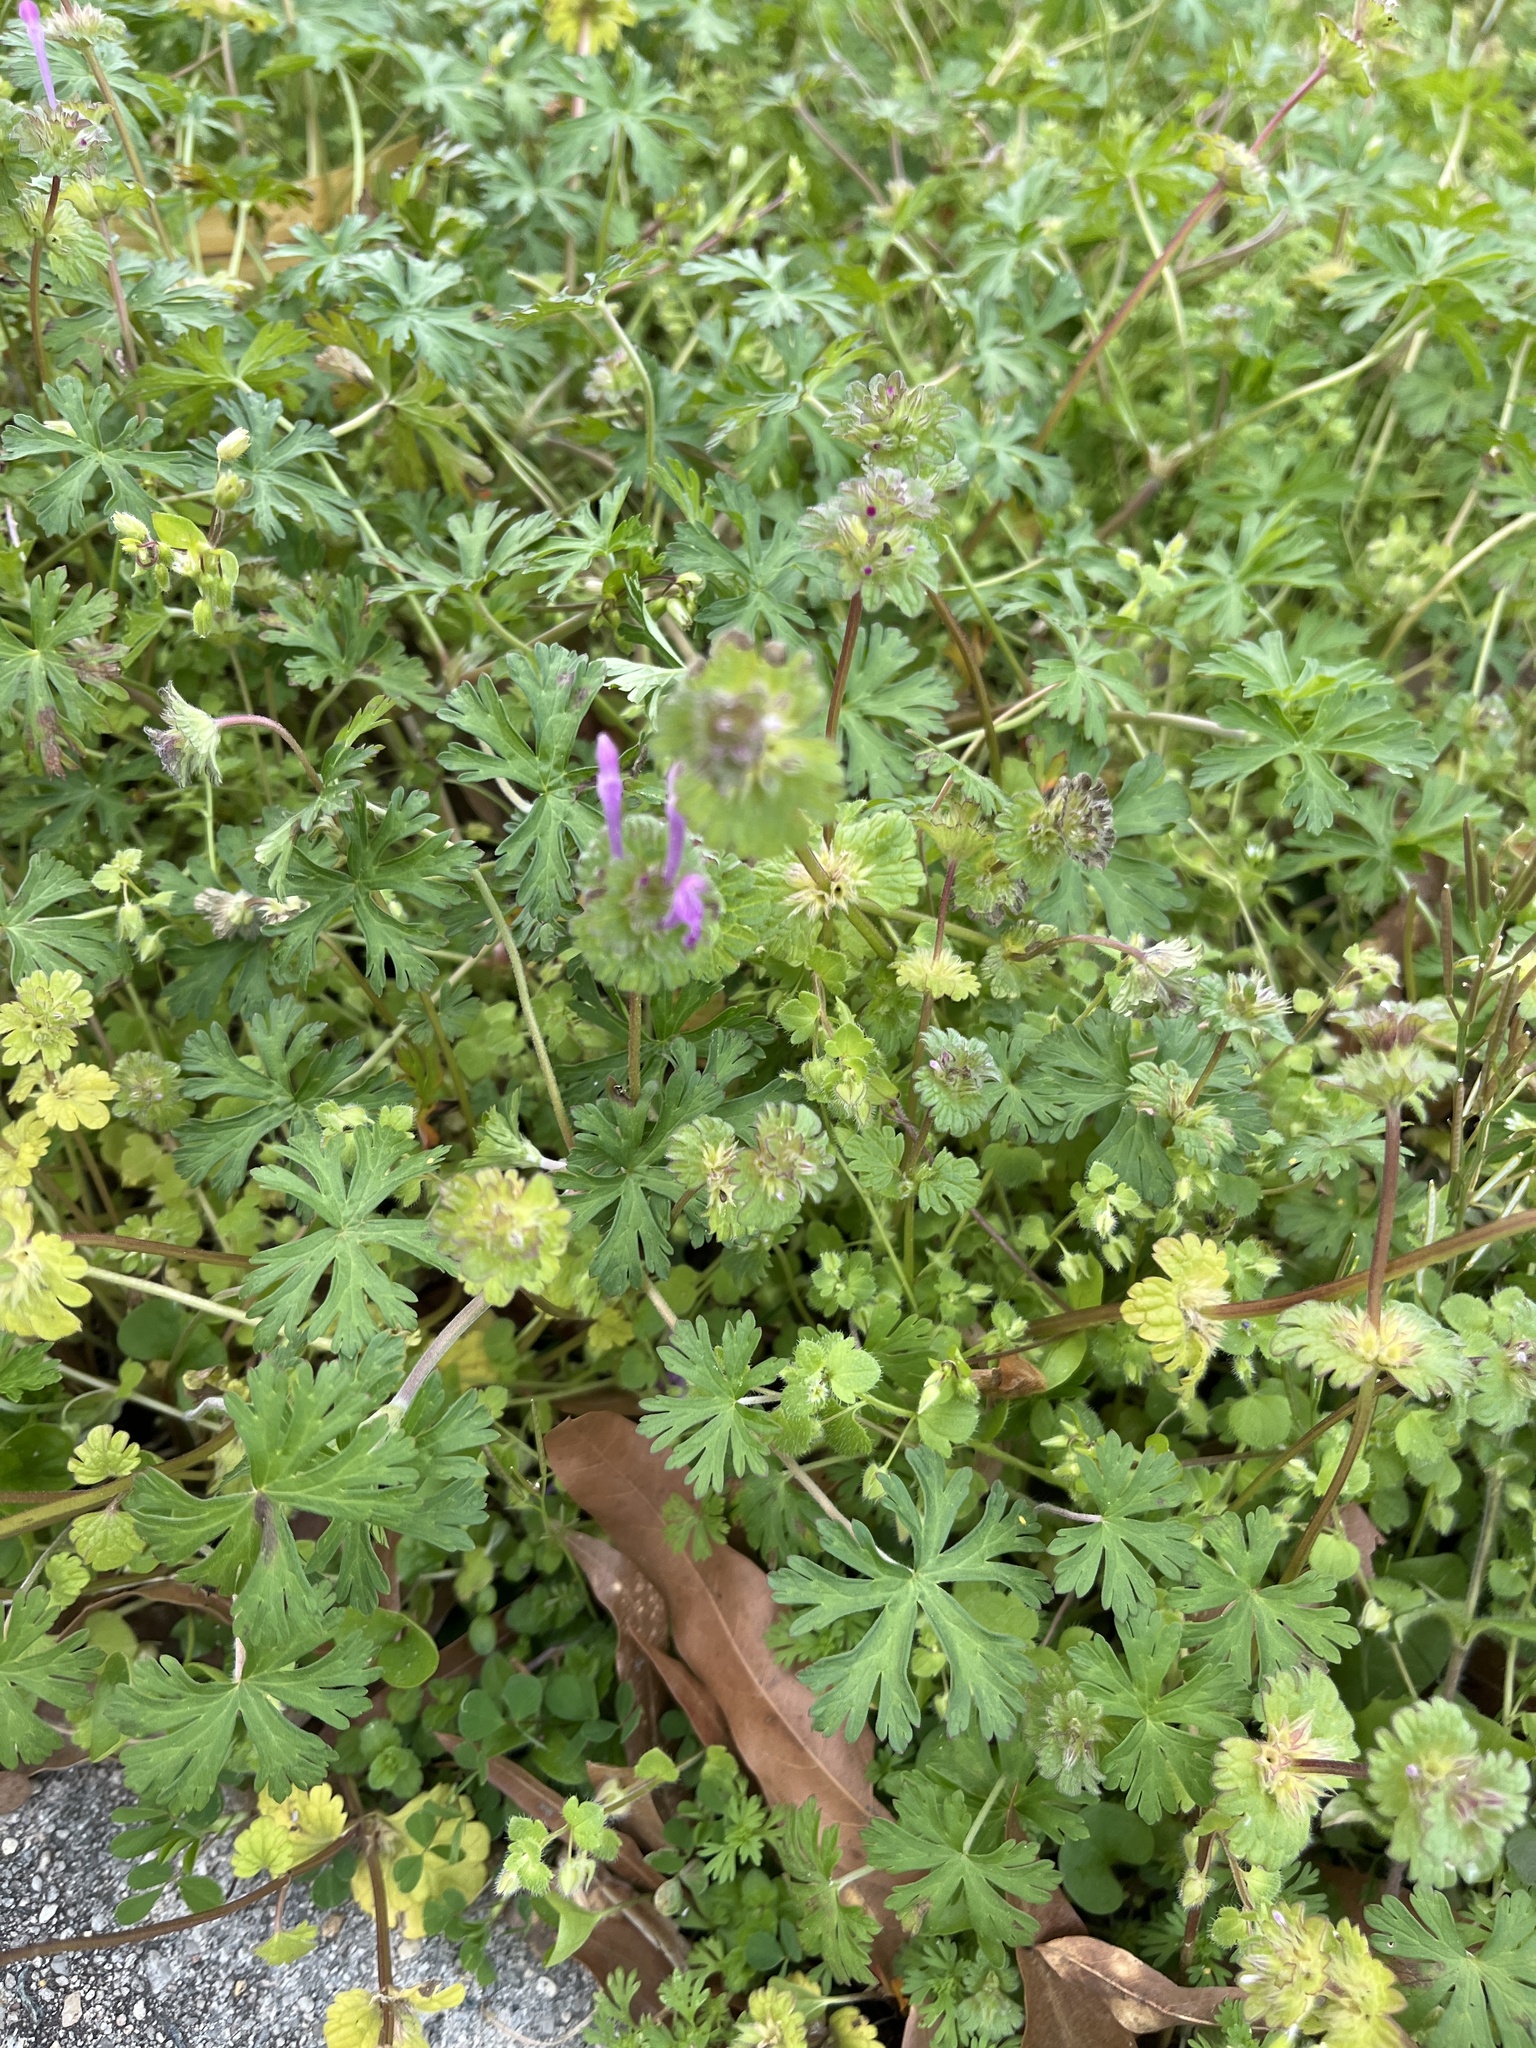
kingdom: Plantae
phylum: Tracheophyta
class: Magnoliopsida
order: Lamiales
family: Lamiaceae
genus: Lamium
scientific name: Lamium amplexicaule
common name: Henbit dead-nettle
